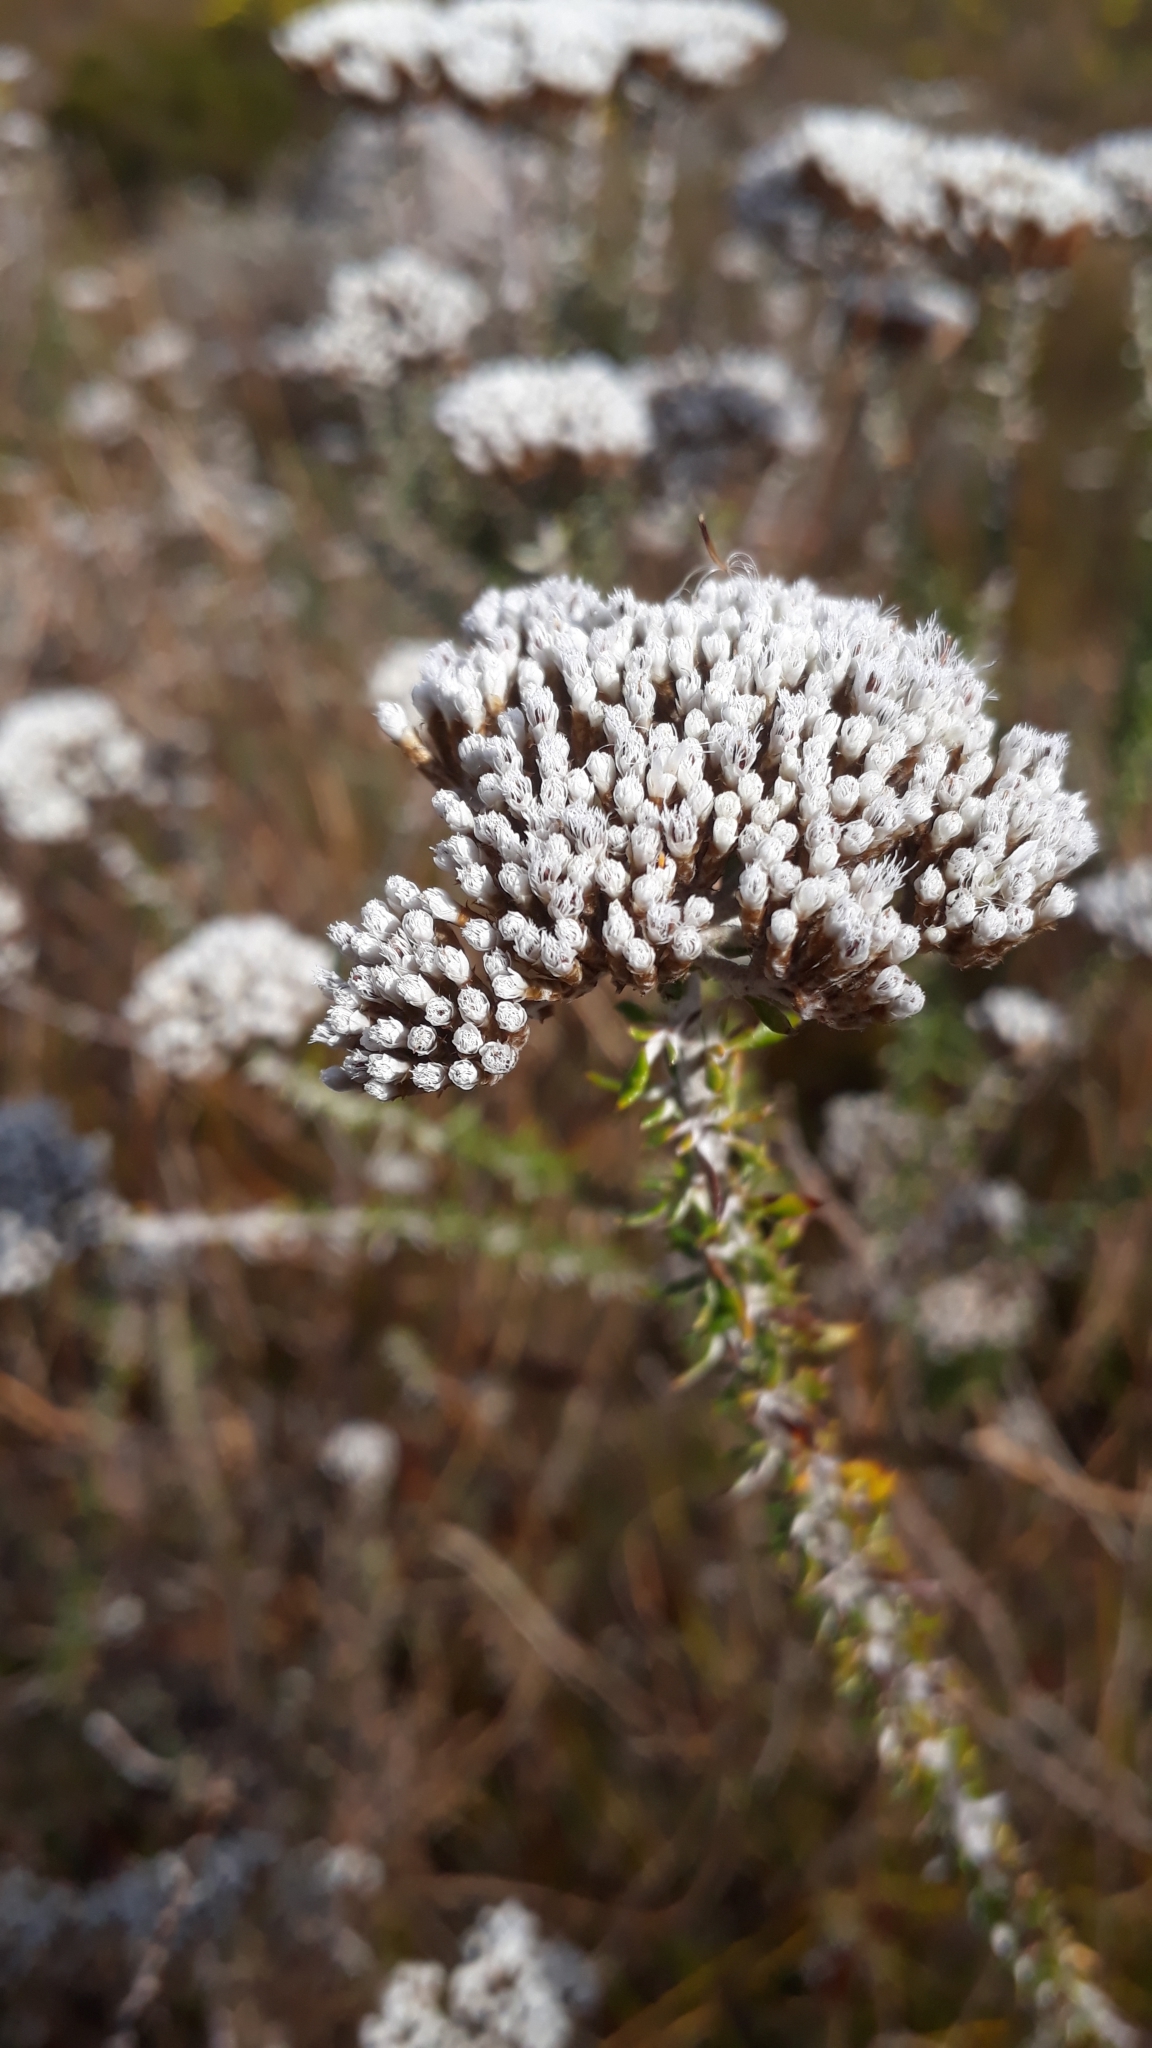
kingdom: Plantae
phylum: Tracheophyta
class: Magnoliopsida
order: Asterales
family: Asteraceae
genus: Metalasia
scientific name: Metalasia densa
